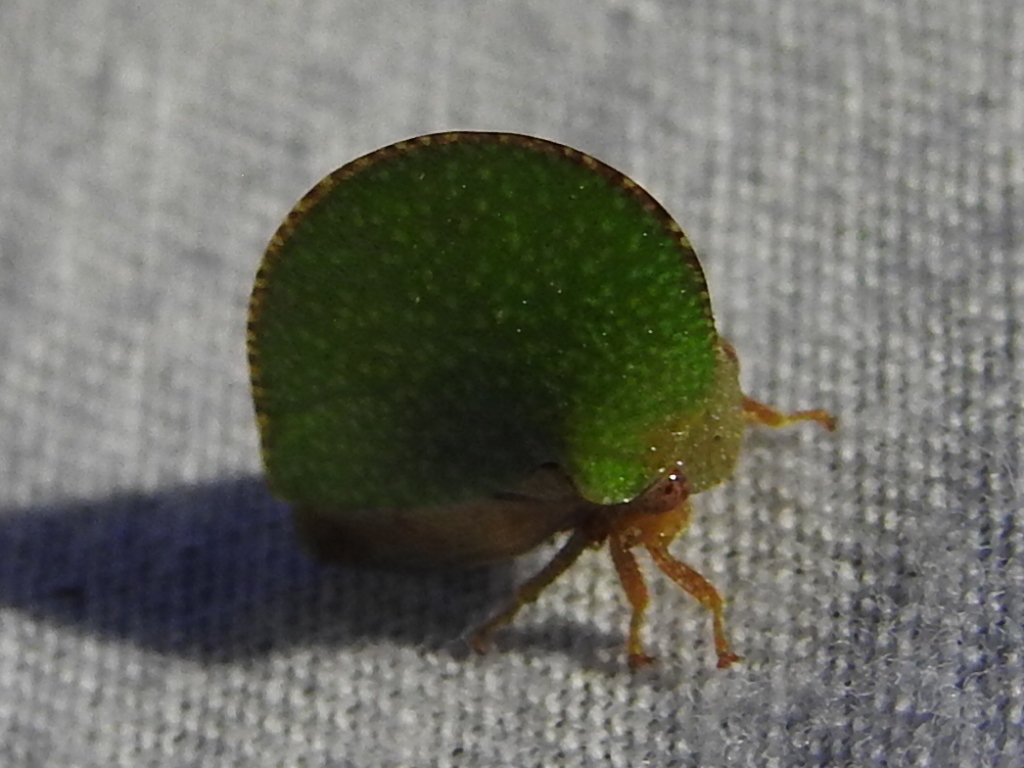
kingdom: Animalia
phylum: Arthropoda
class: Insecta
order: Hemiptera
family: Membracidae
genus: Archasia
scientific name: Archasia auriculata
